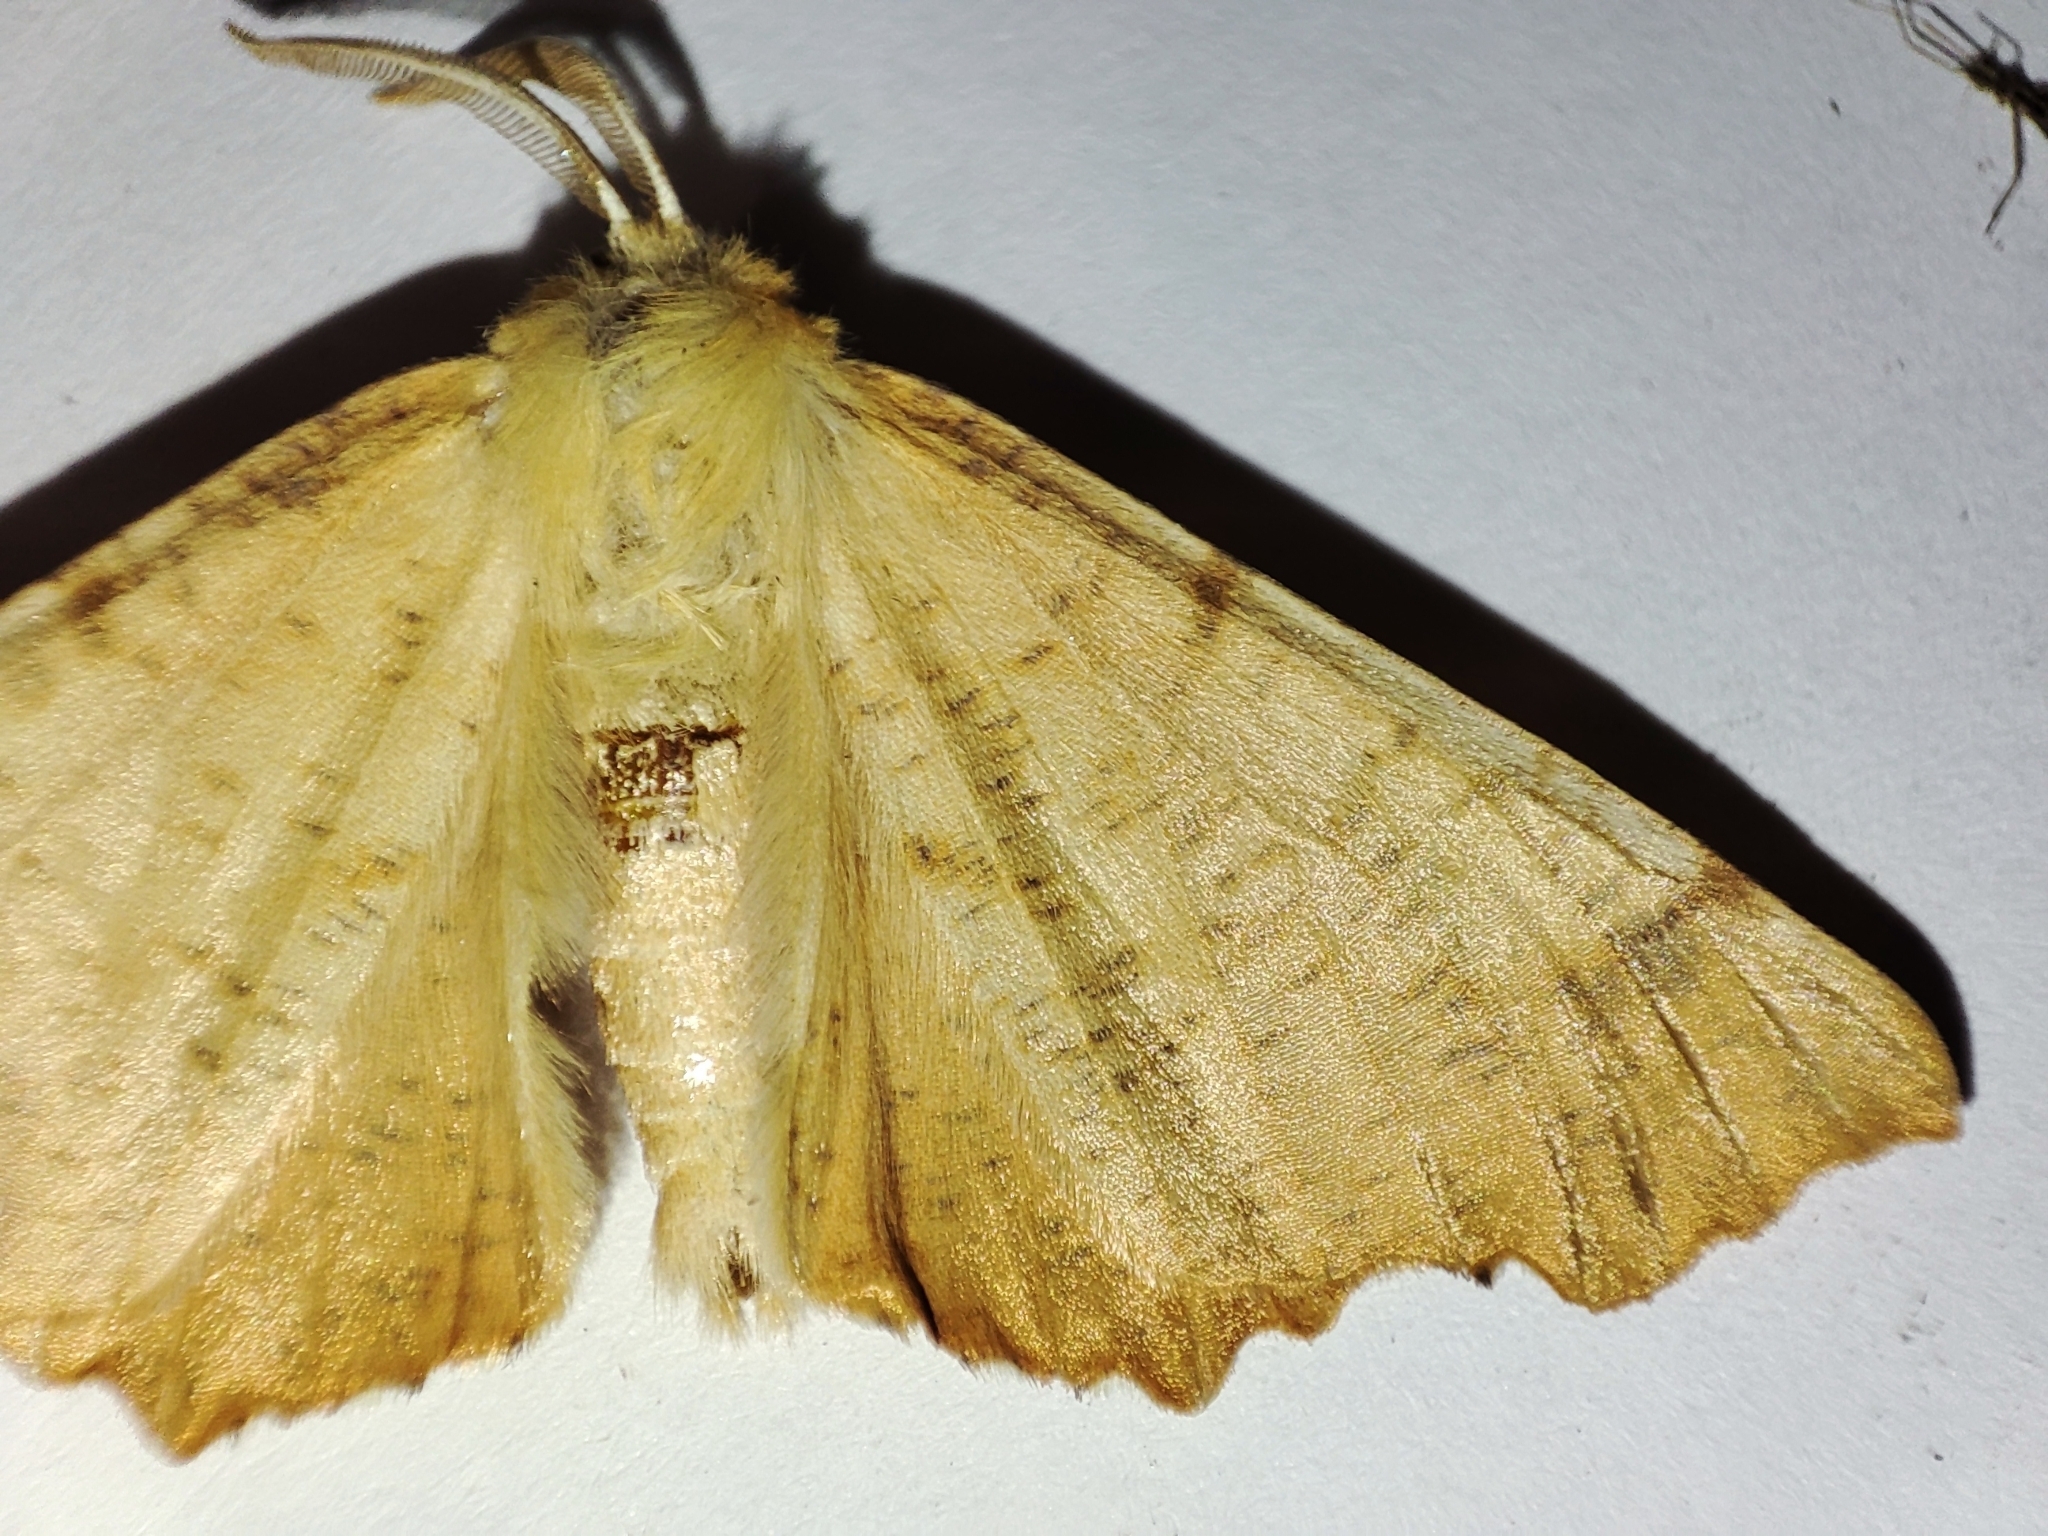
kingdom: Animalia
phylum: Arthropoda
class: Insecta
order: Lepidoptera
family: Geometridae
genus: Ennomos
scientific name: Ennomos autumnaria
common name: Large thorn
